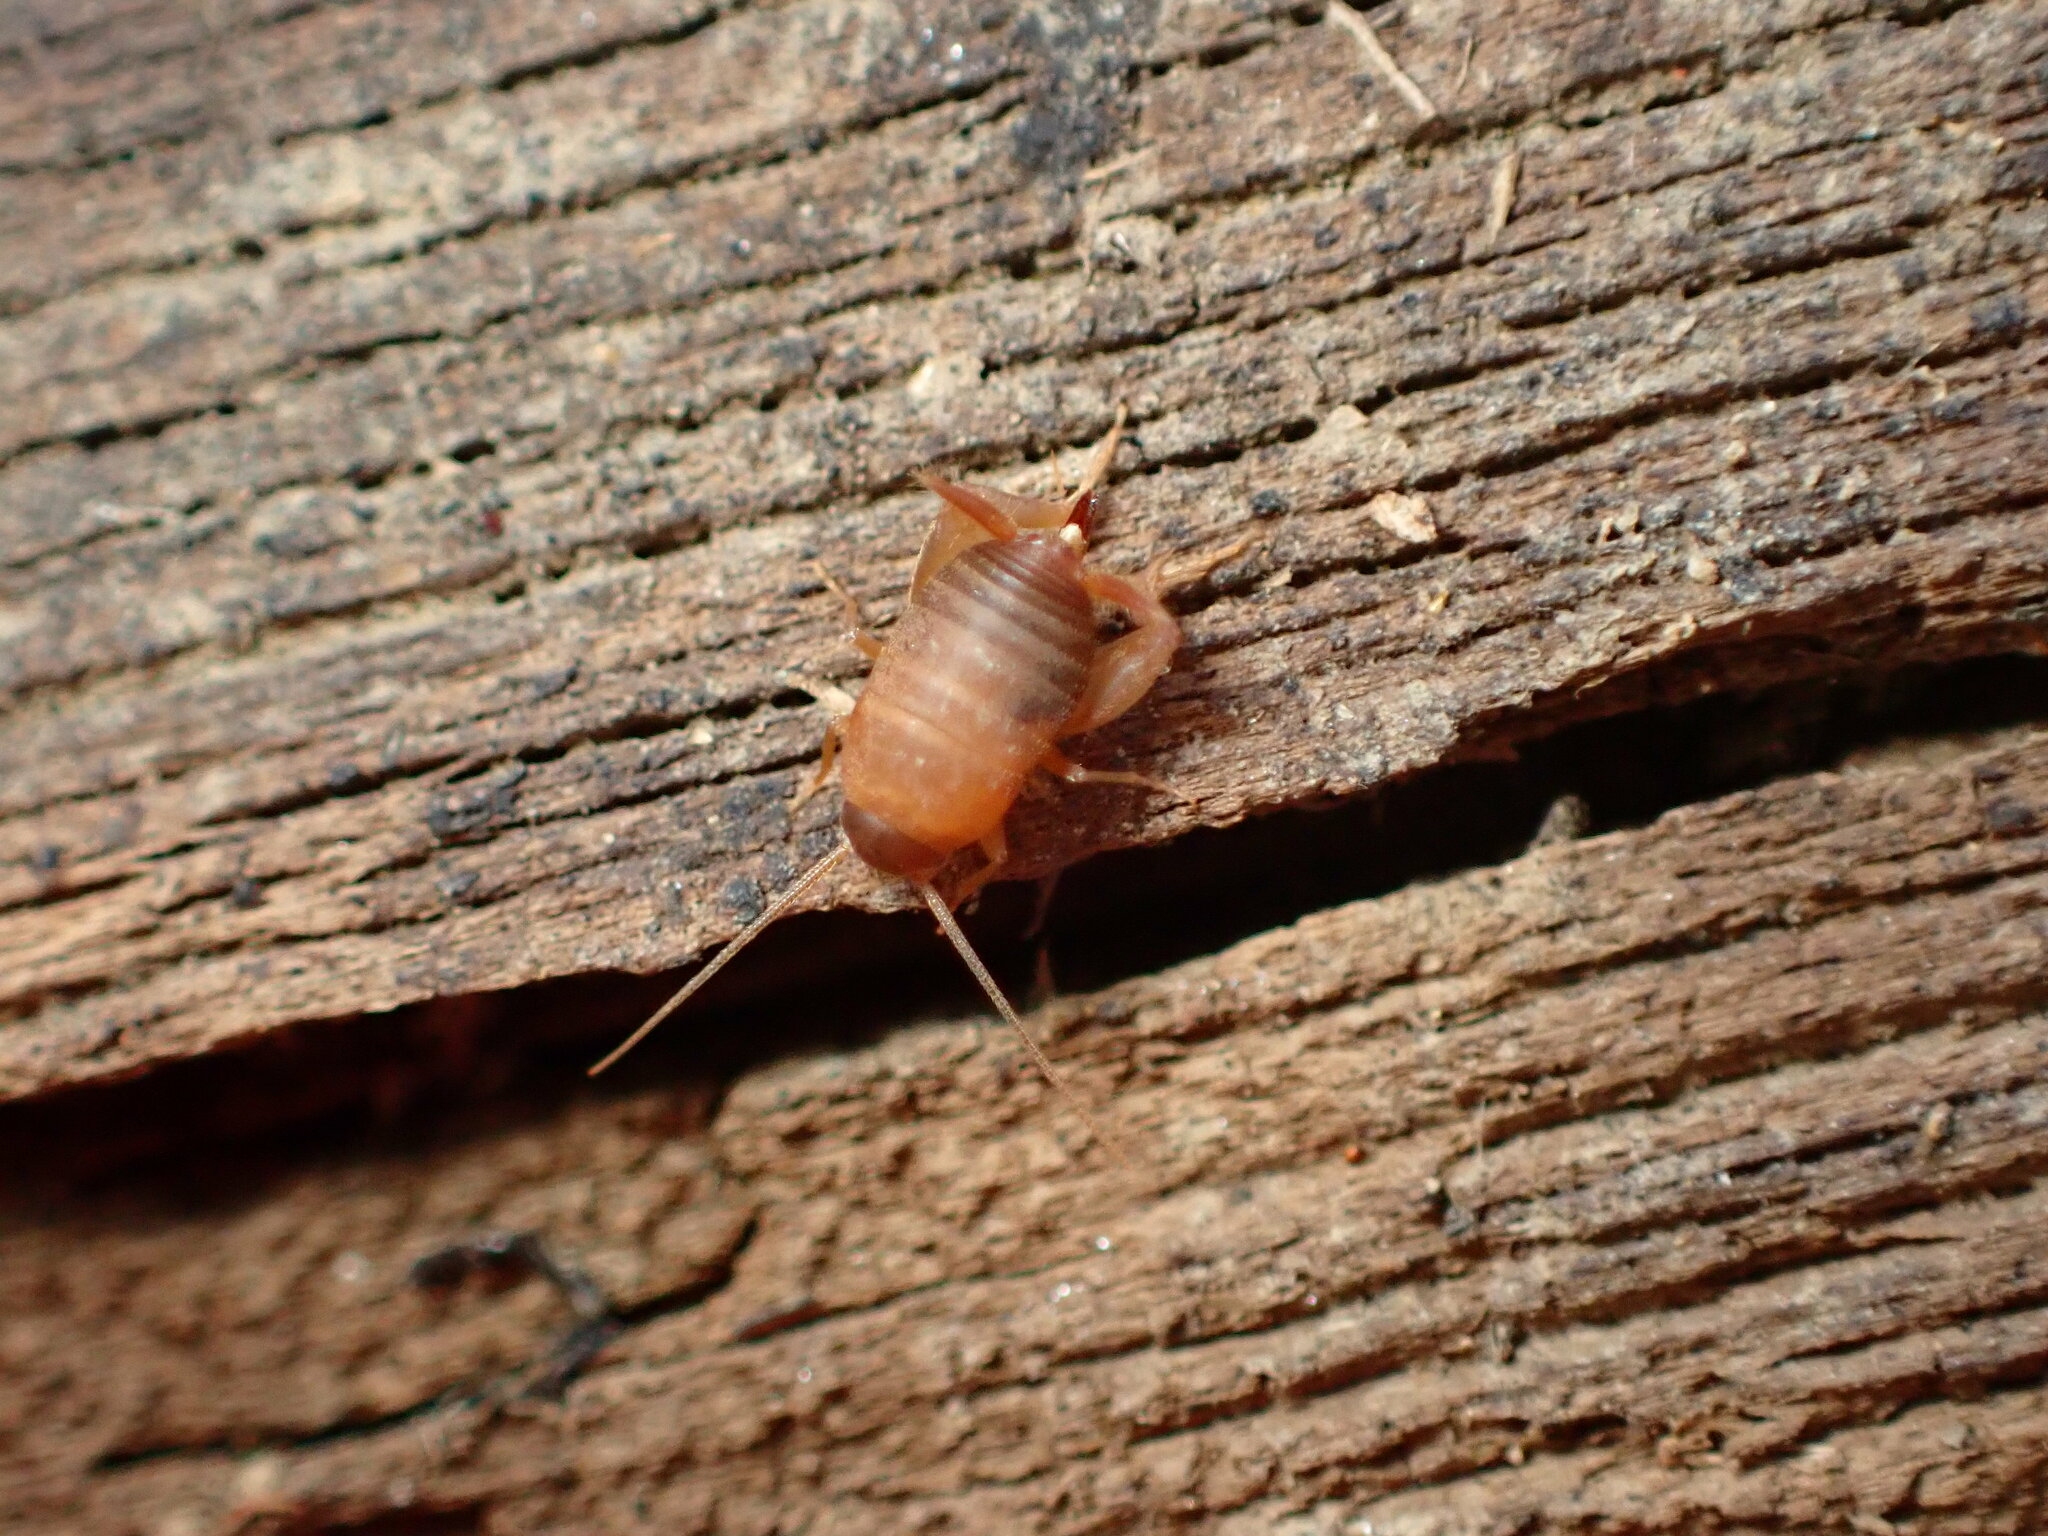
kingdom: Animalia
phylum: Arthropoda
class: Insecta
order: Orthoptera
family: Myrmecophilidae
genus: Myrmecophilus
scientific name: Myrmecophilus oregonensis
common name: Oregon ant cricket
